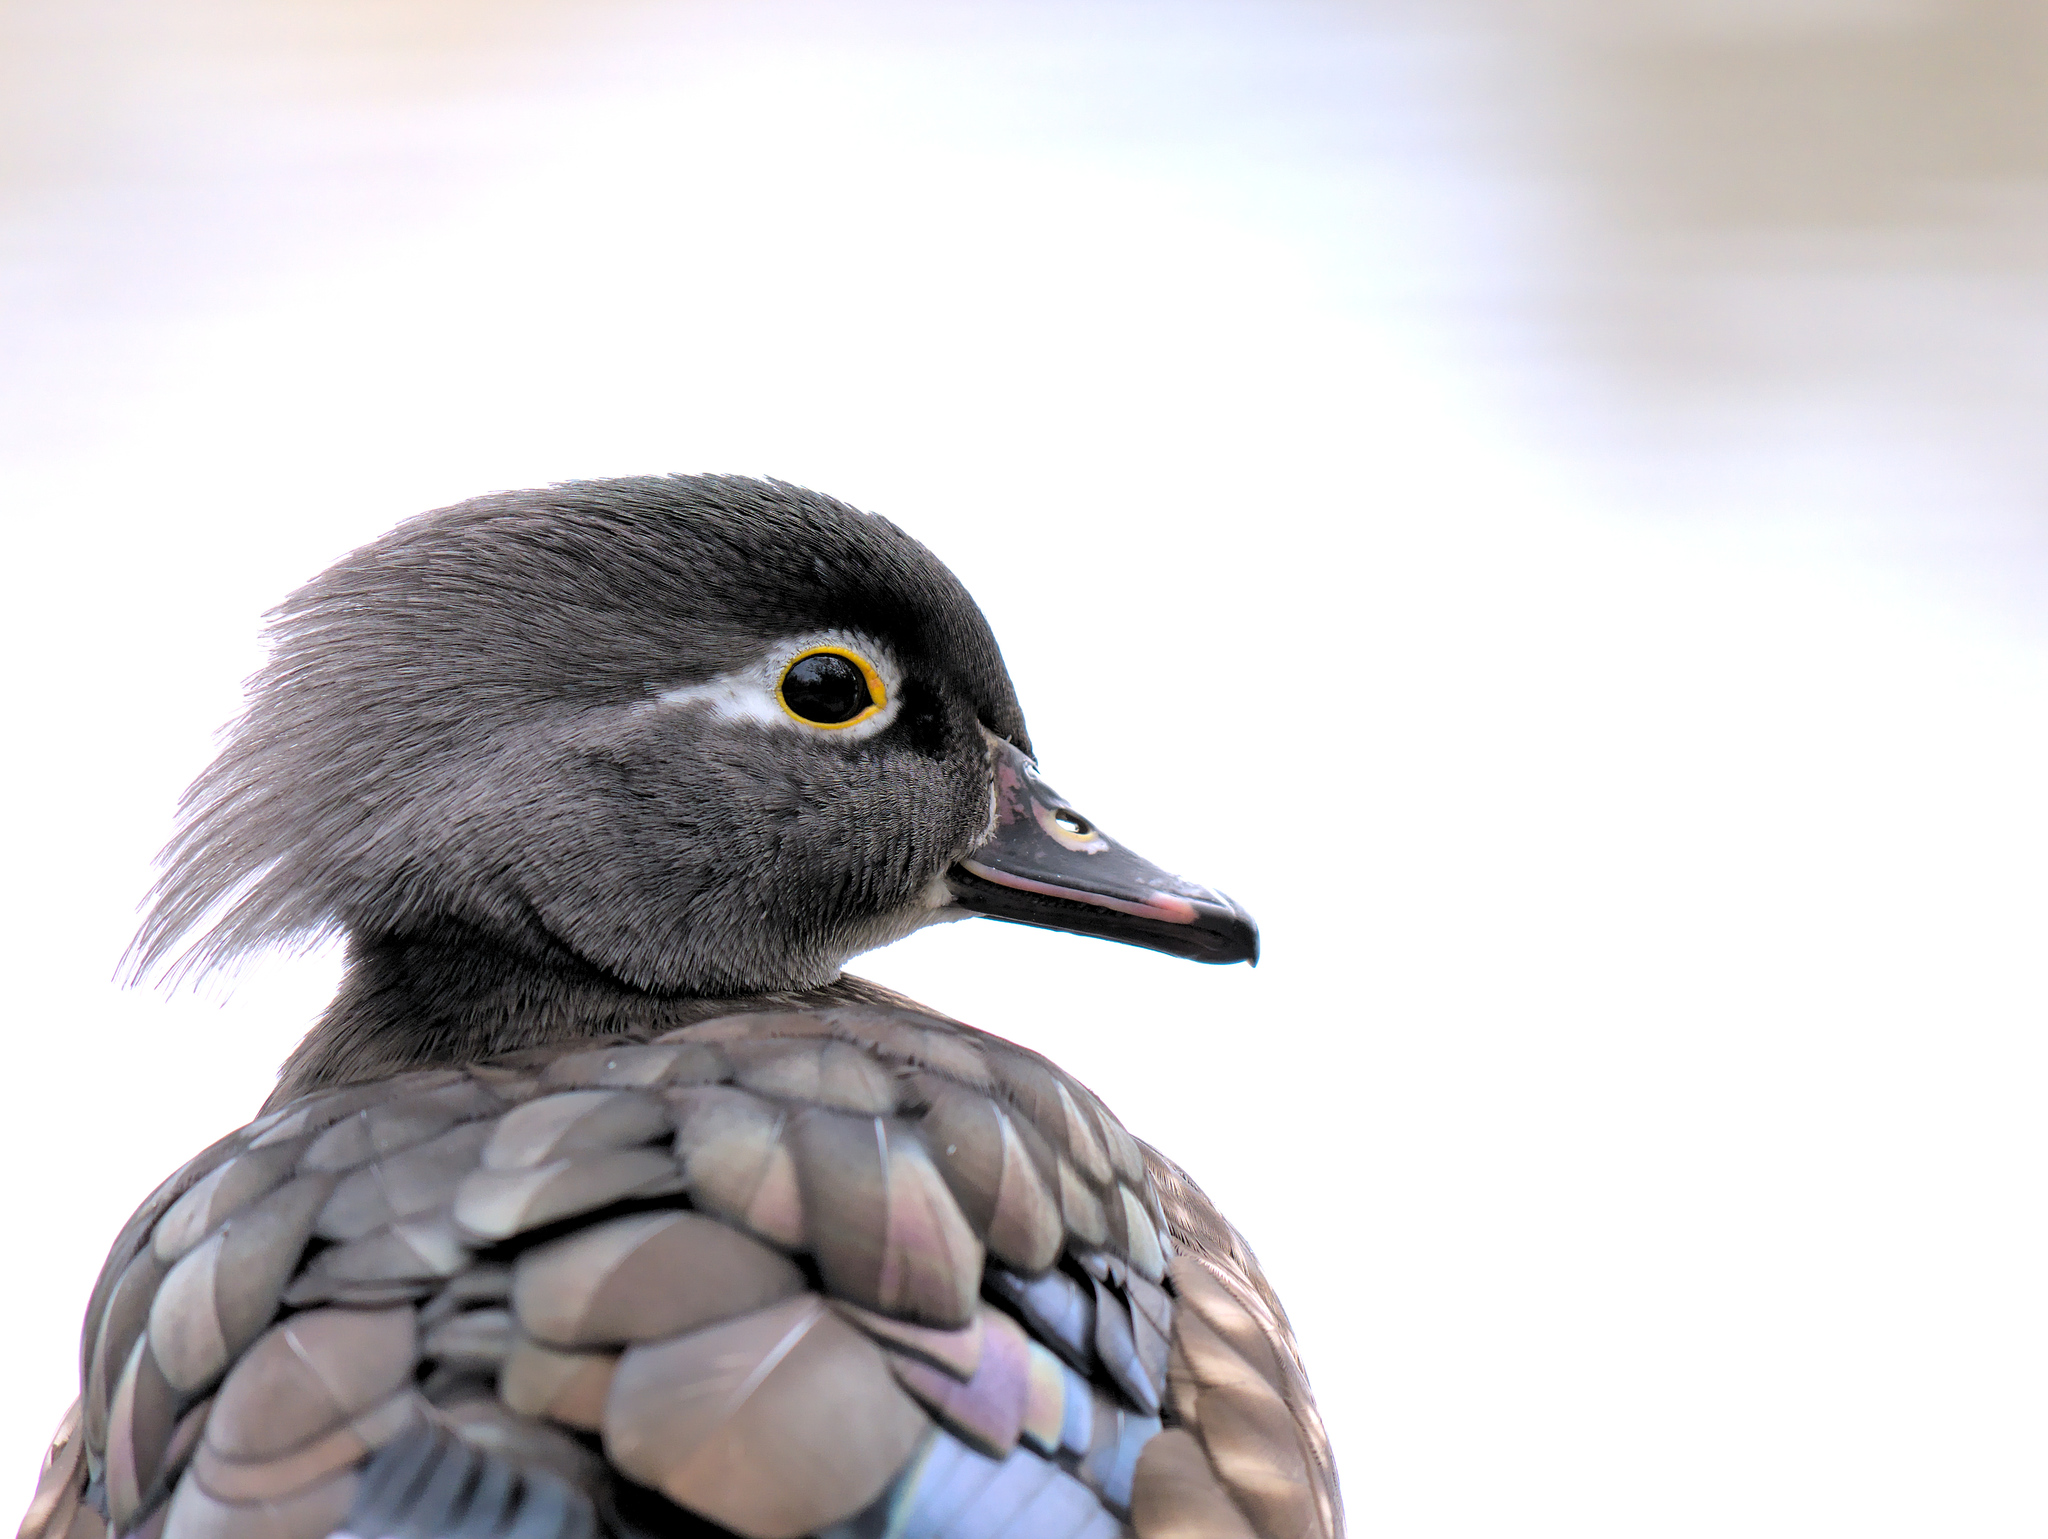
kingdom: Animalia
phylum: Chordata
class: Aves
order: Anseriformes
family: Anatidae
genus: Aix
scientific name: Aix sponsa
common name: Wood duck
